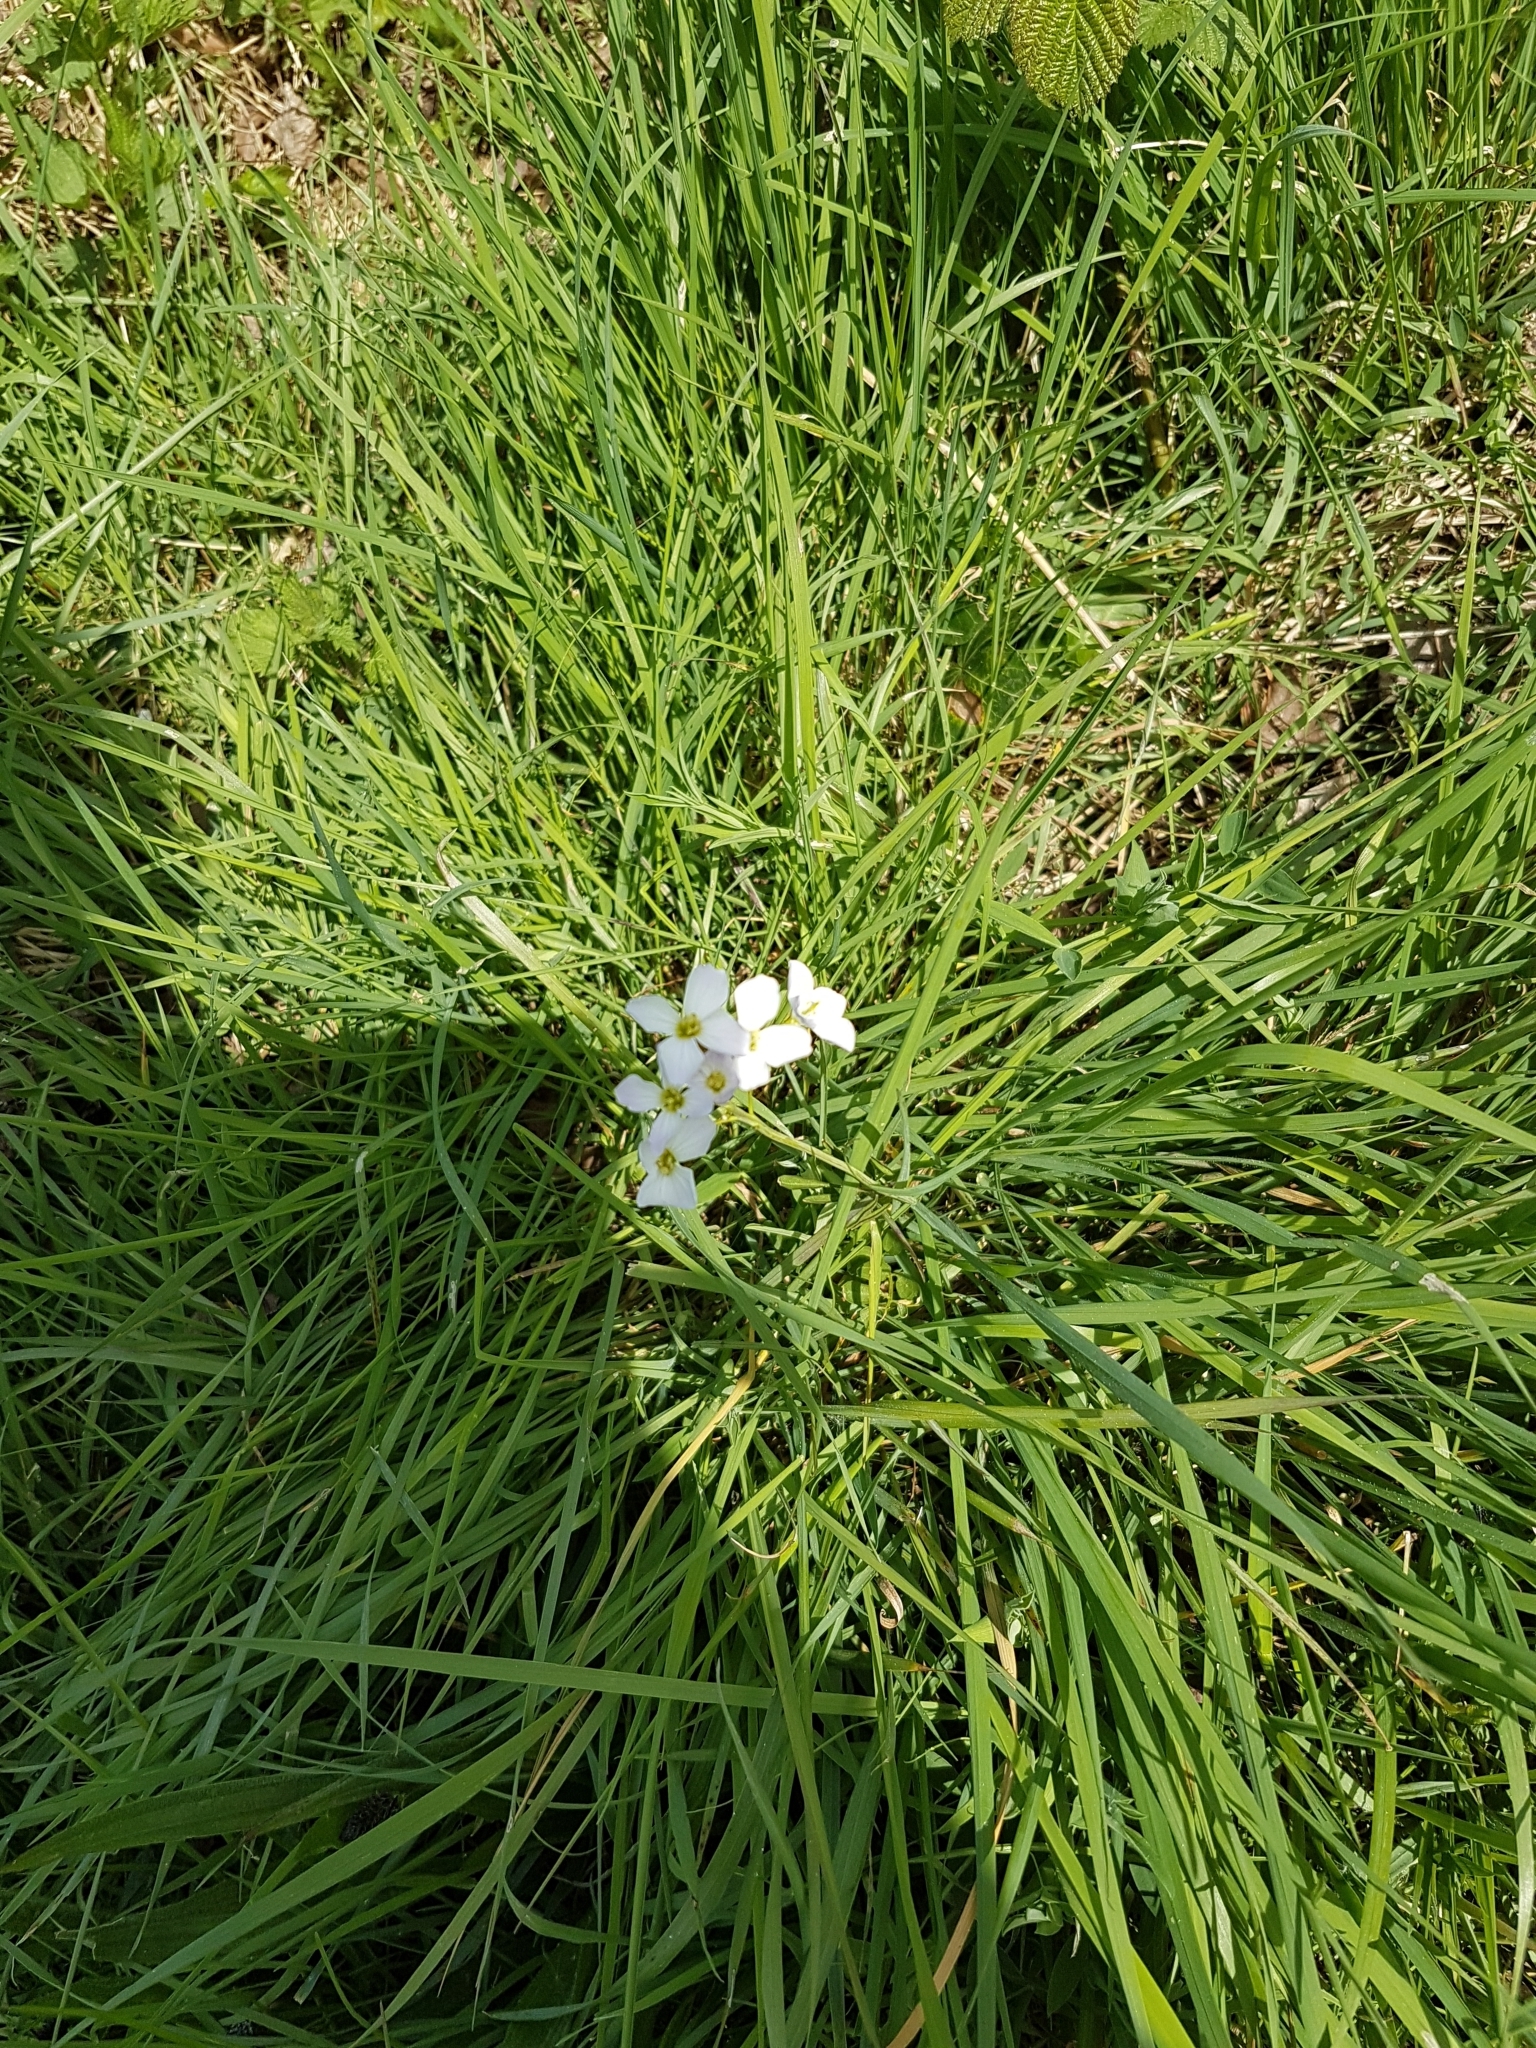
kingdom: Plantae
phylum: Tracheophyta
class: Magnoliopsida
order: Brassicales
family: Brassicaceae
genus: Cardamine
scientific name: Cardamine pratensis
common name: Cuckoo flower
